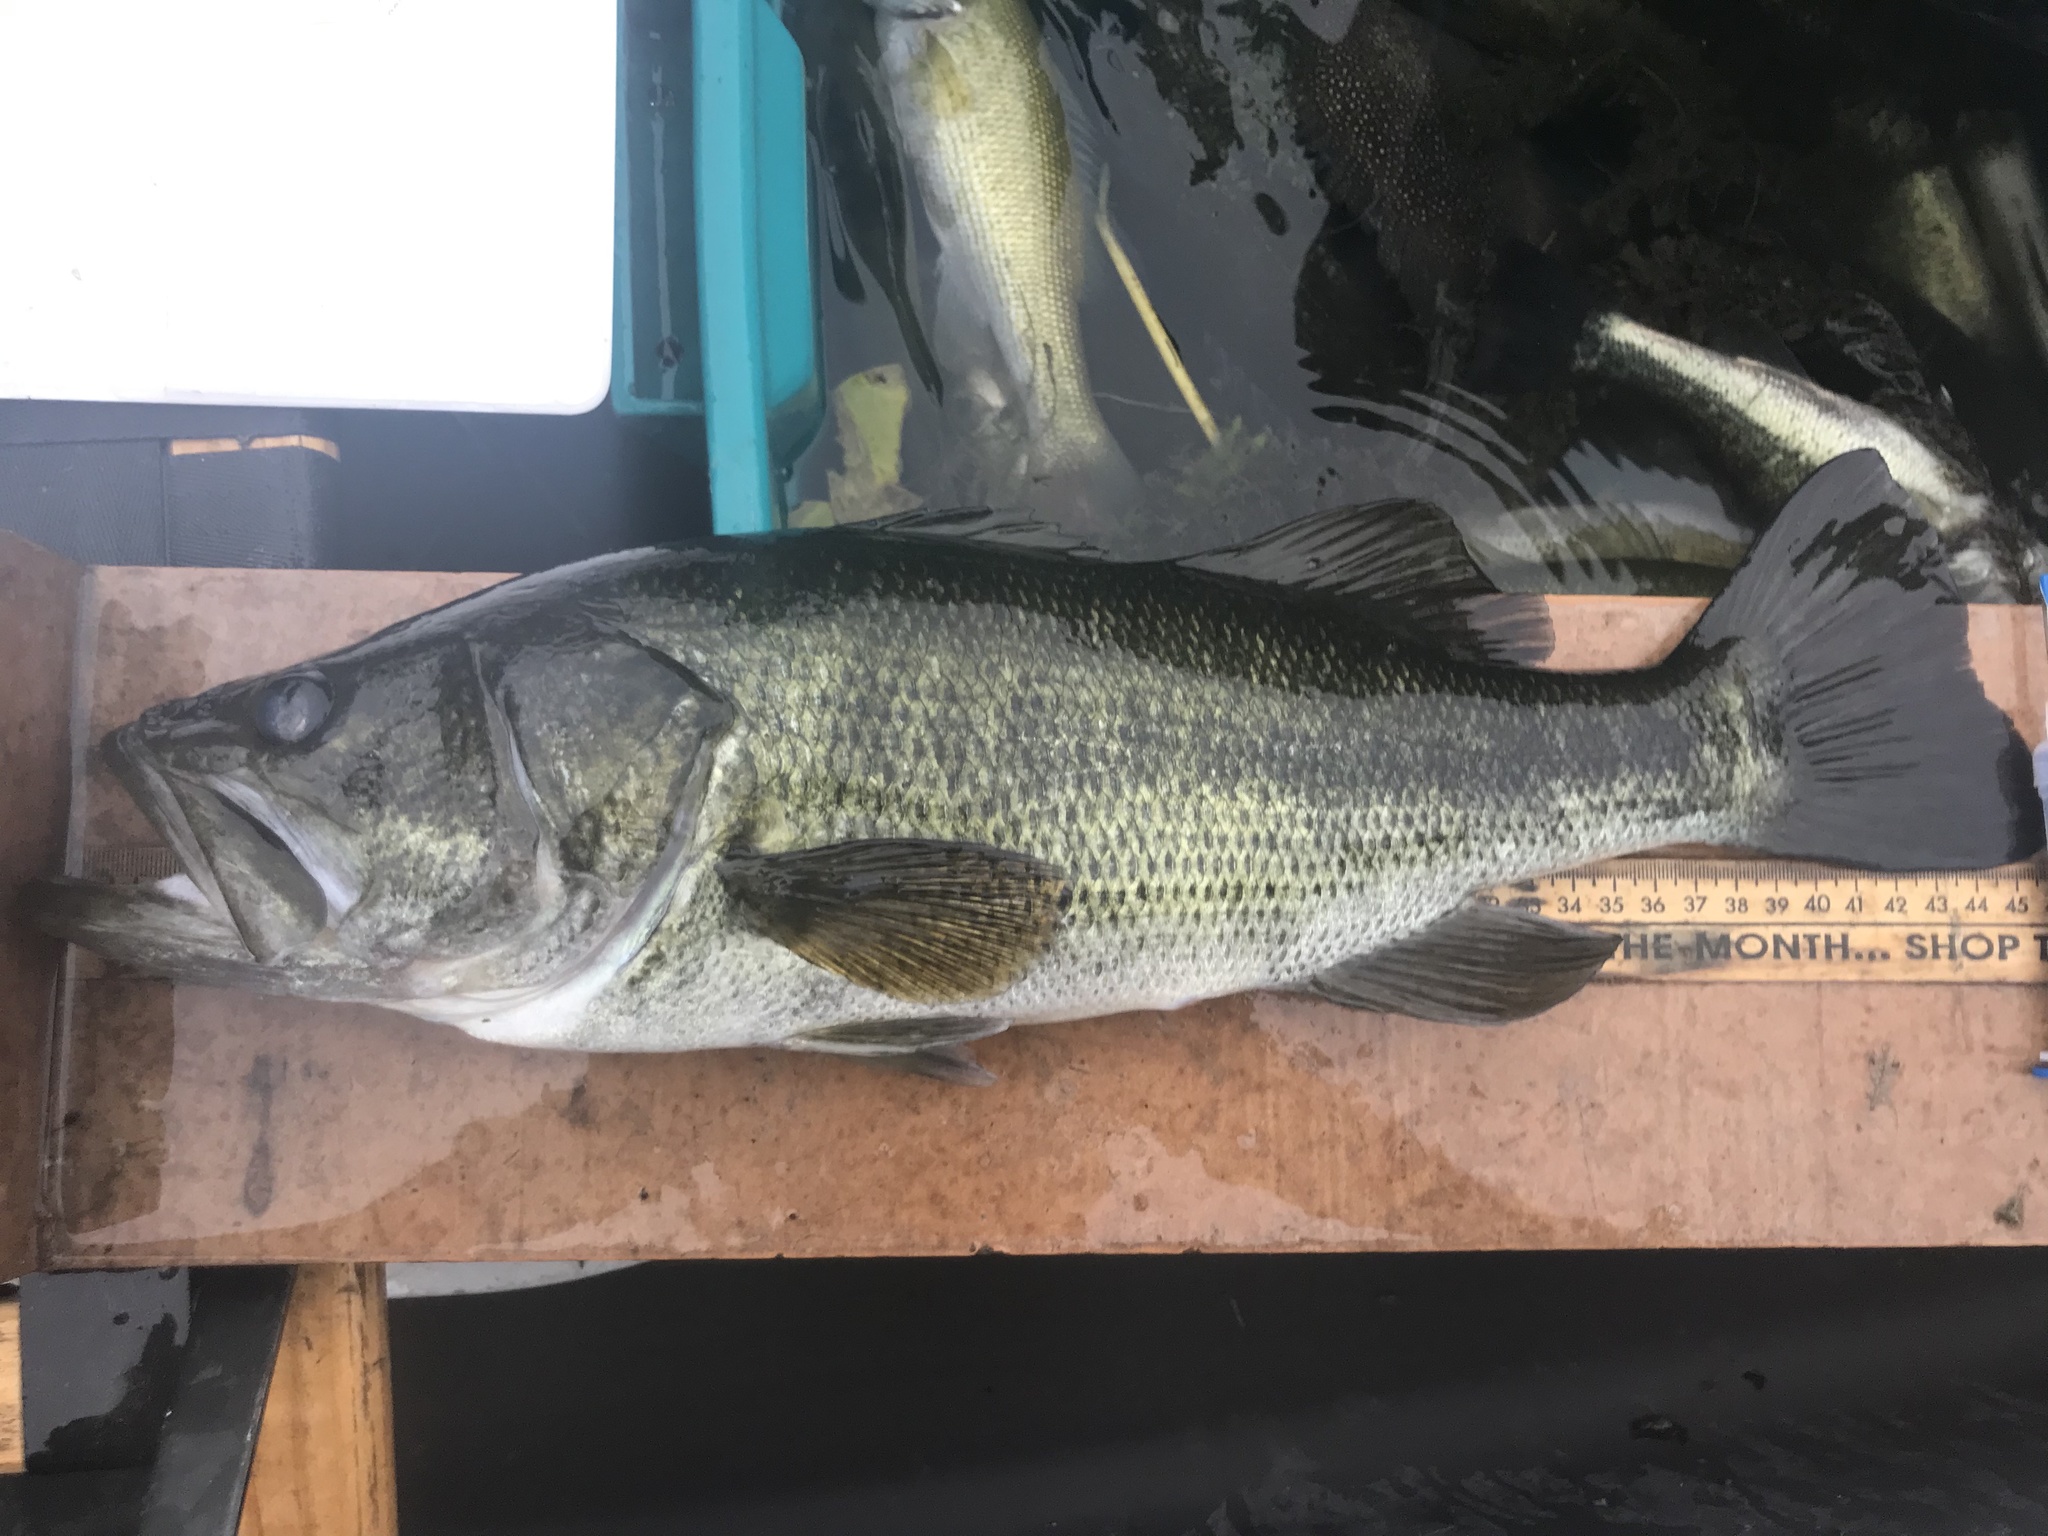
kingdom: Animalia
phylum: Chordata
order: Perciformes
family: Centrarchidae
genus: Micropterus
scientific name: Micropterus
